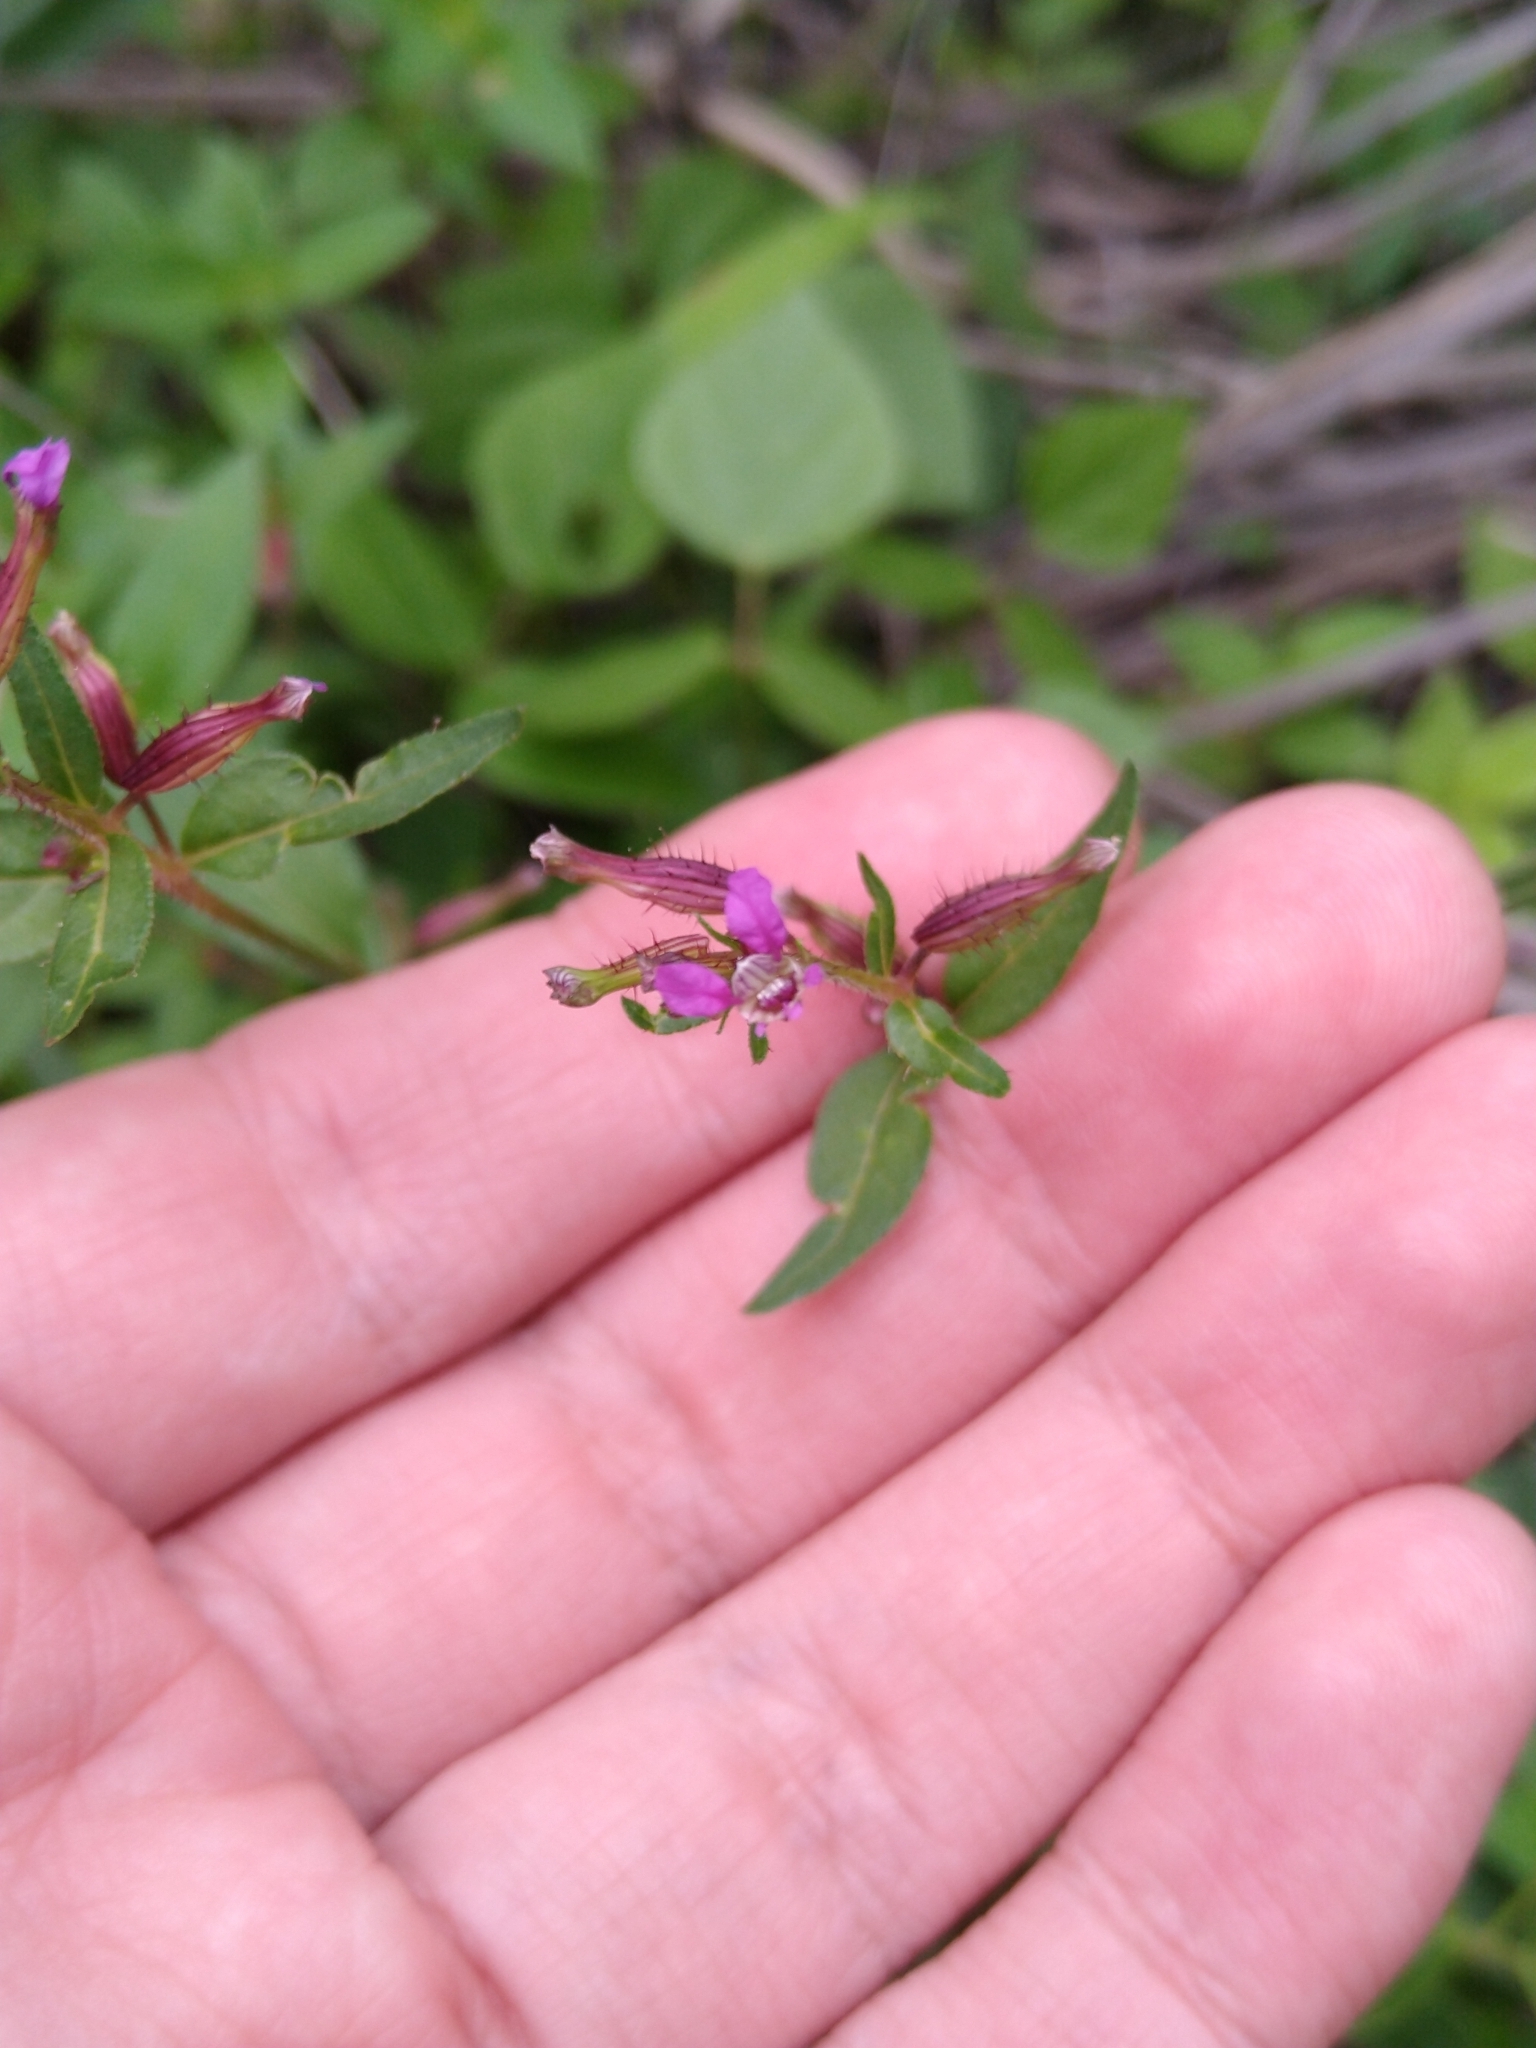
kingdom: Plantae
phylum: Tracheophyta
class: Magnoliopsida
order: Myrtales
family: Lythraceae
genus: Cuphea
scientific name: Cuphea wrightii
